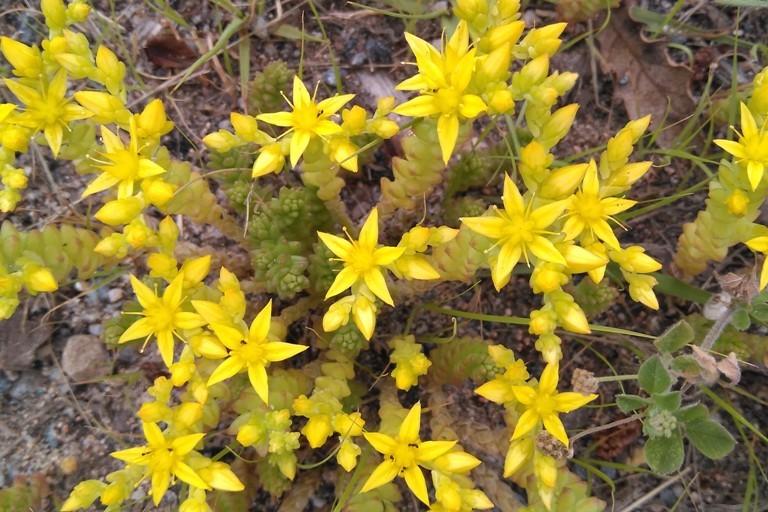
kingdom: Plantae
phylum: Tracheophyta
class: Magnoliopsida
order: Saxifragales
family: Crassulaceae
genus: Sedum
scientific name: Sedum acre
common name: Biting stonecrop
